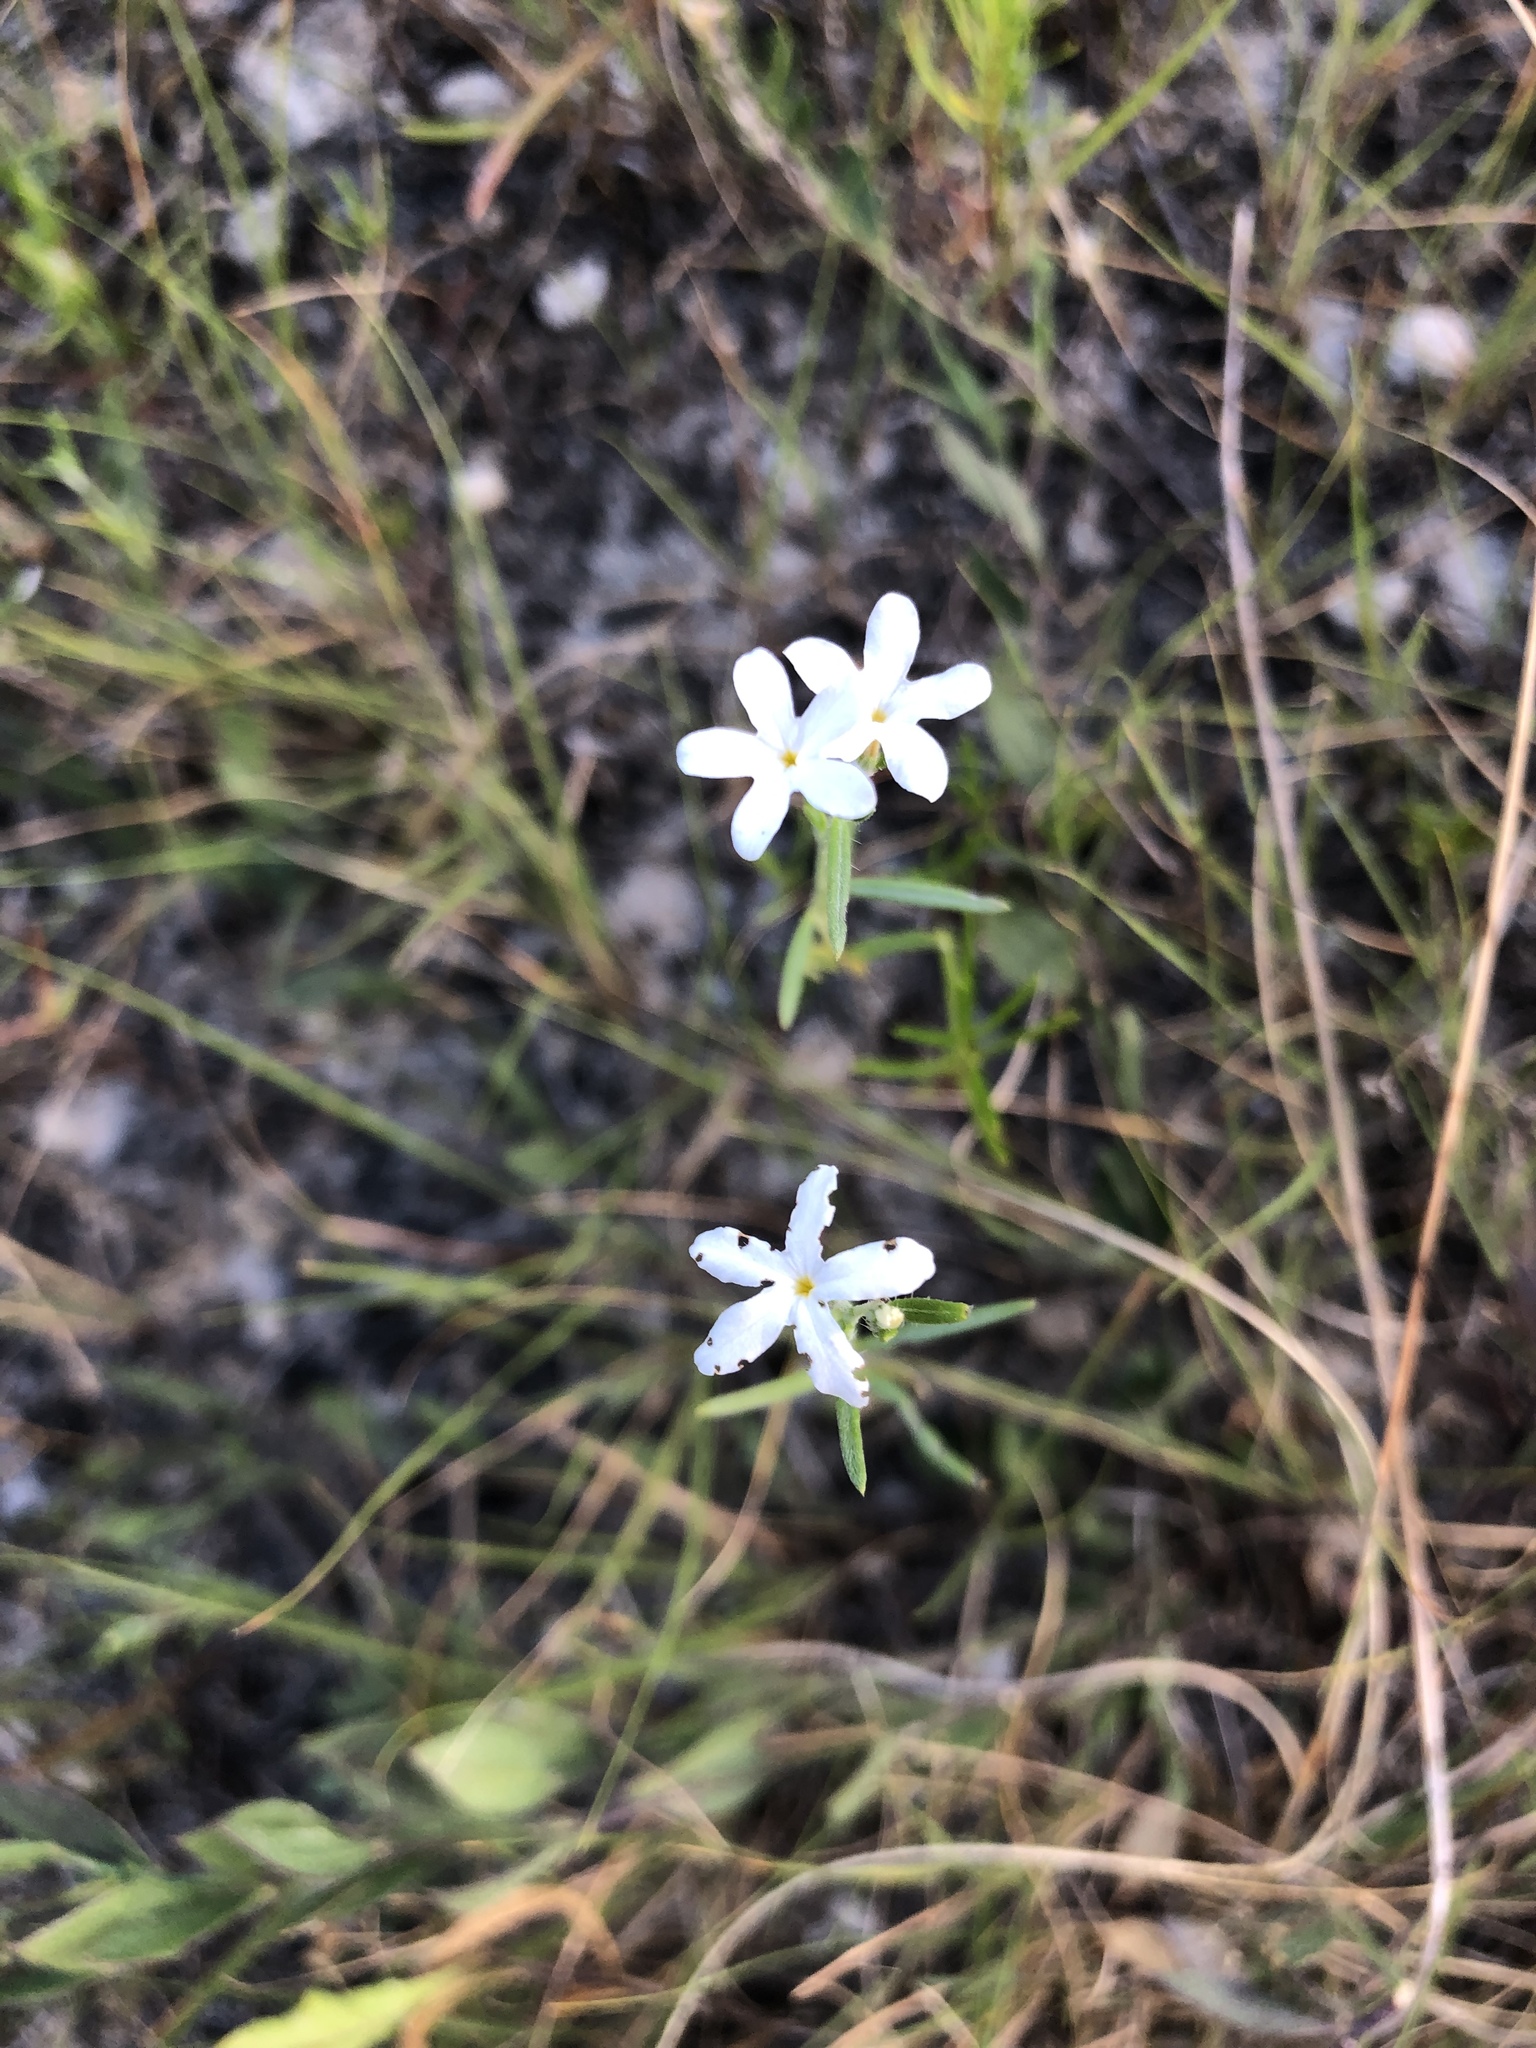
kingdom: Plantae
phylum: Tracheophyta
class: Magnoliopsida
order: Boraginales
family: Heliotropiaceae
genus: Euploca
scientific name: Euploca tenella
